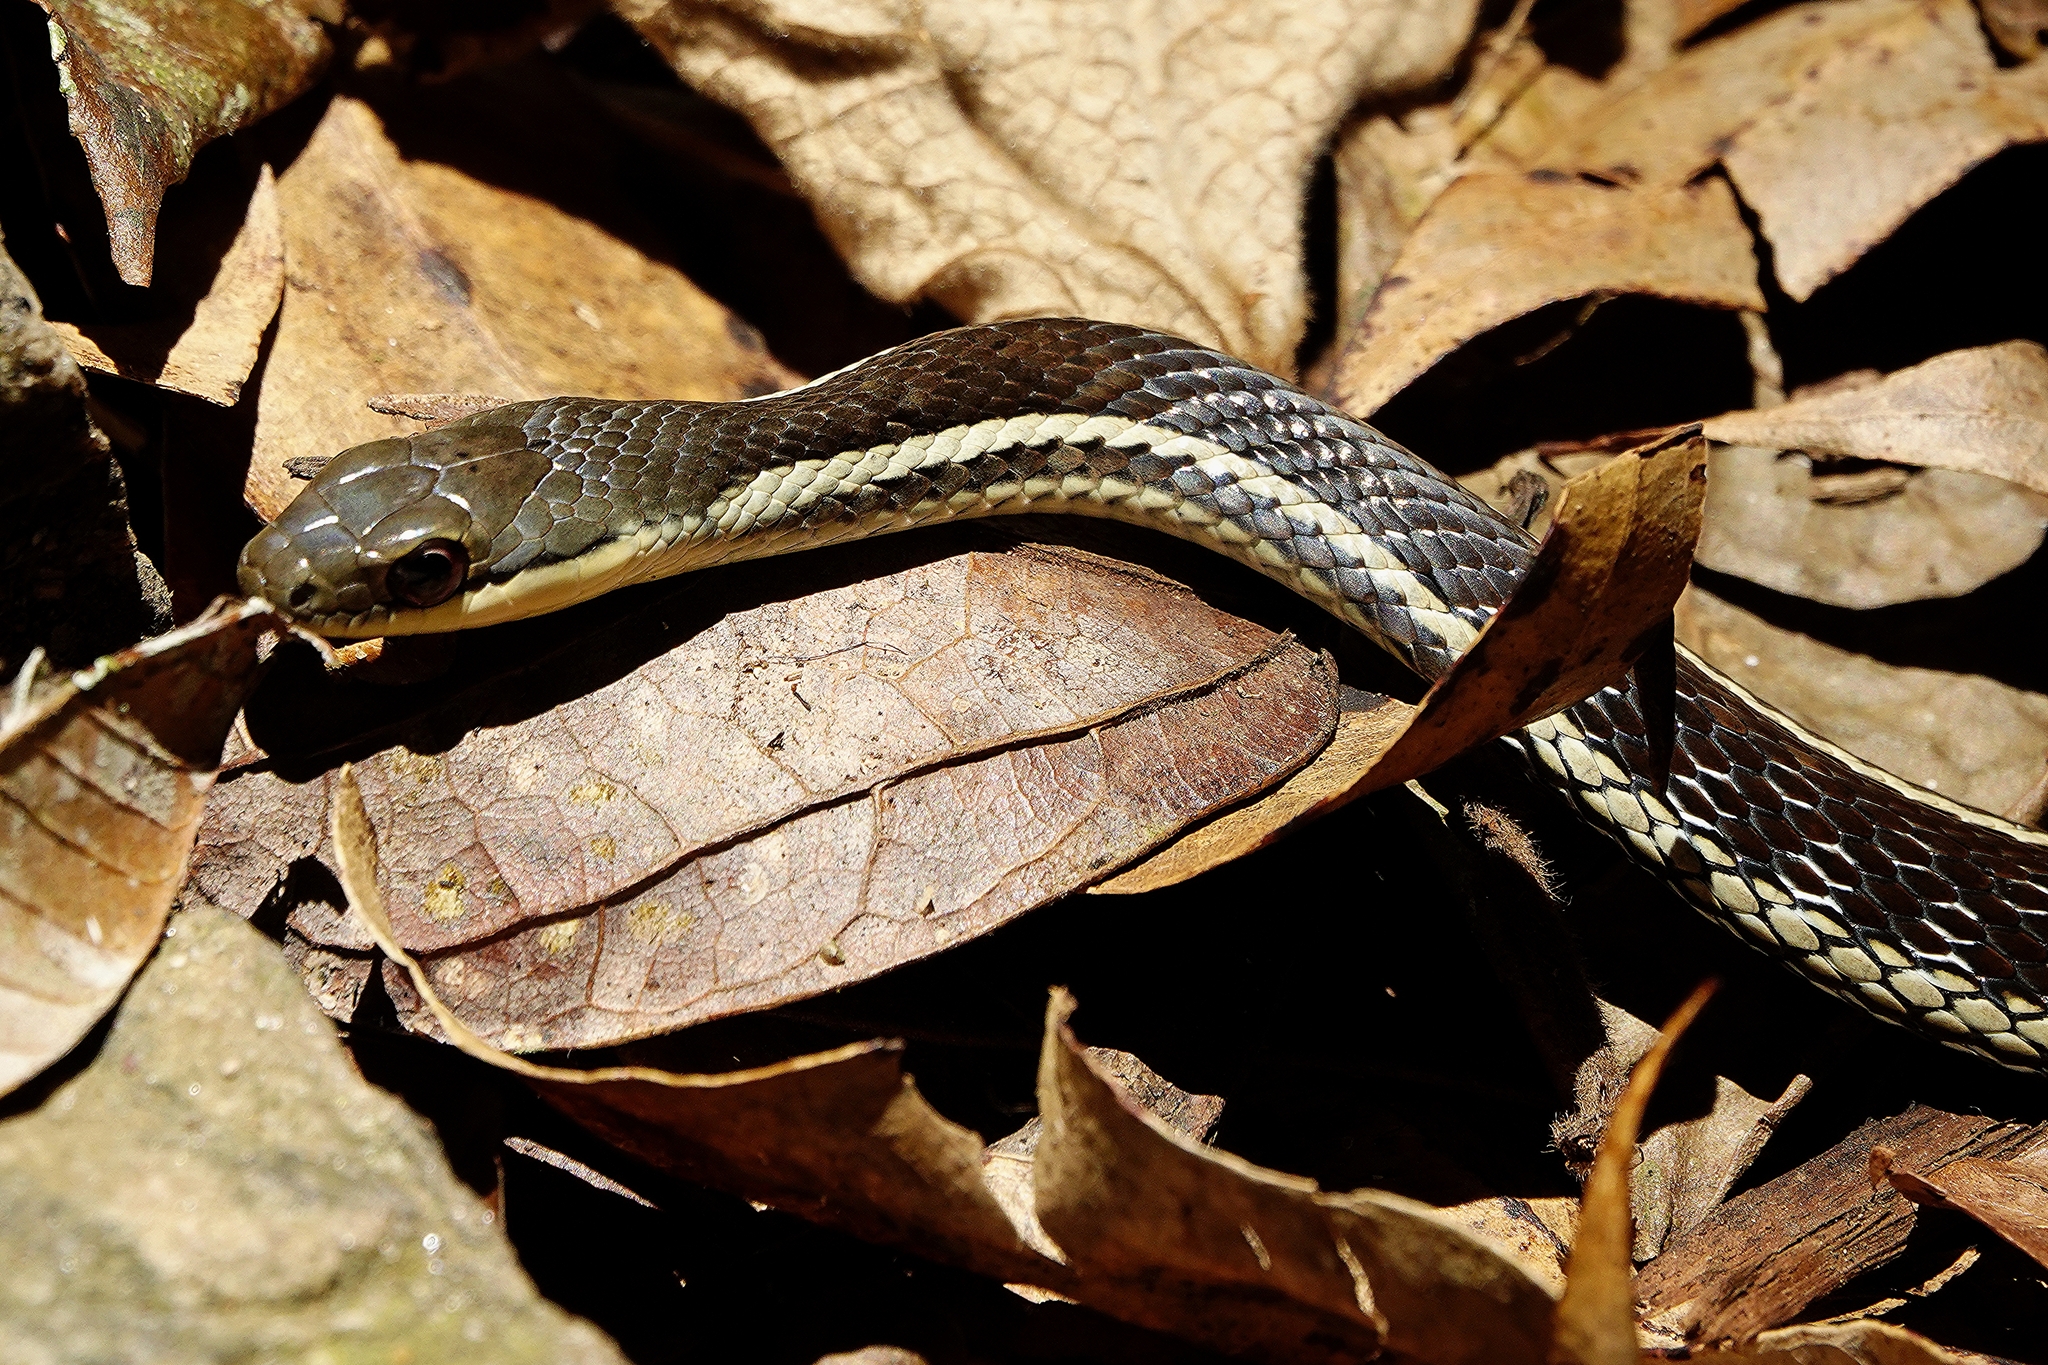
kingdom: Animalia
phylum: Chordata
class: Squamata
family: Pseudoxyrhophiidae
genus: Thamnosophis
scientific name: Thamnosophis lateralis
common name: Lateral water snake
